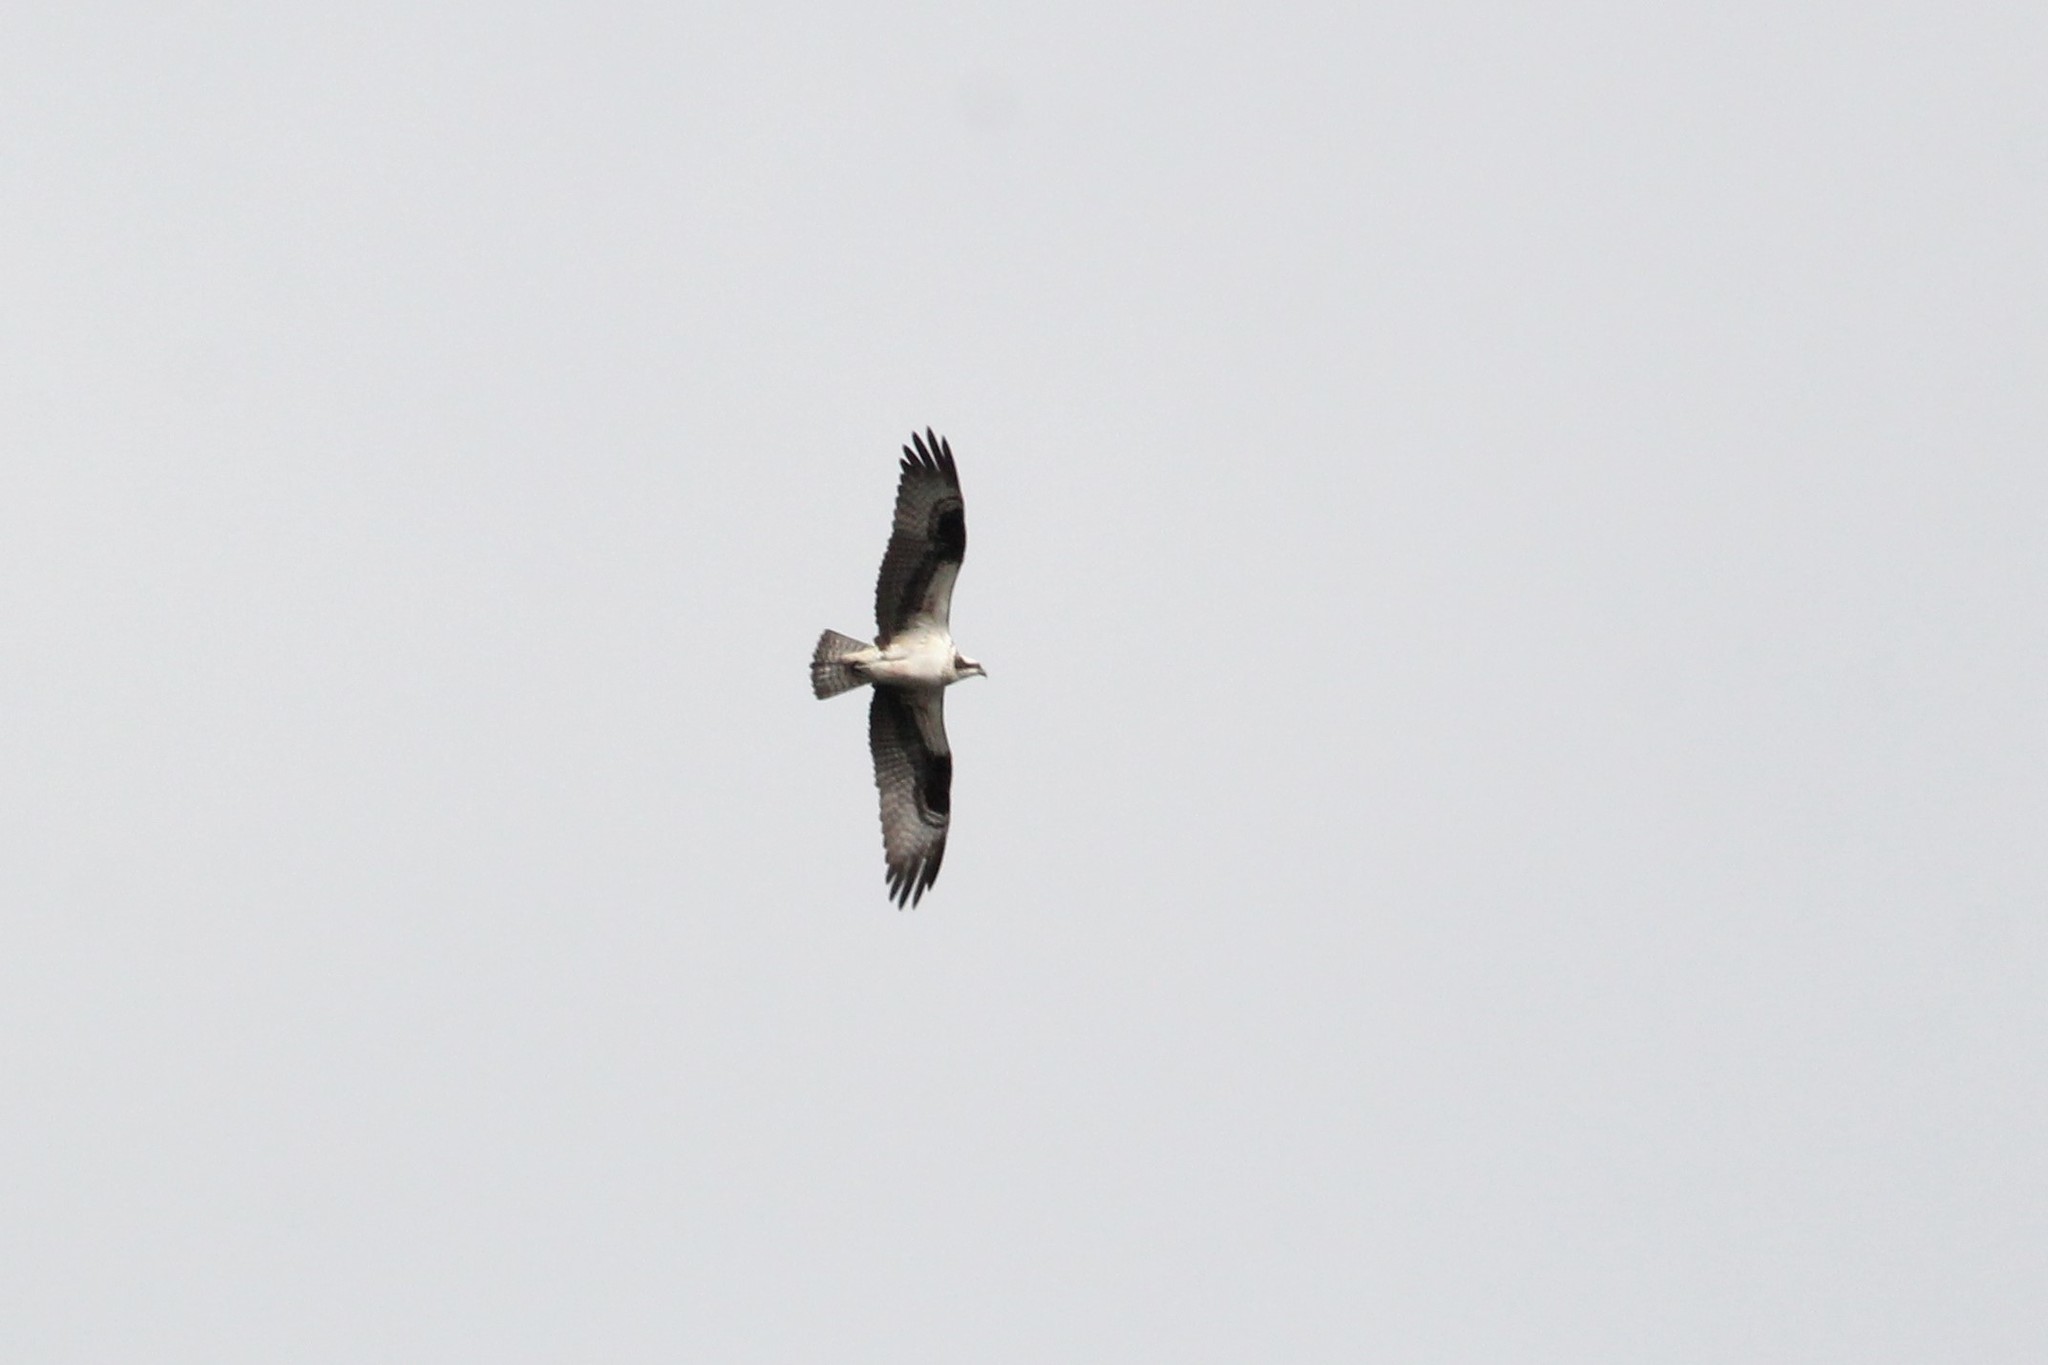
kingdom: Animalia
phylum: Chordata
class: Aves
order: Accipitriformes
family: Pandionidae
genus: Pandion
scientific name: Pandion haliaetus
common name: Osprey
